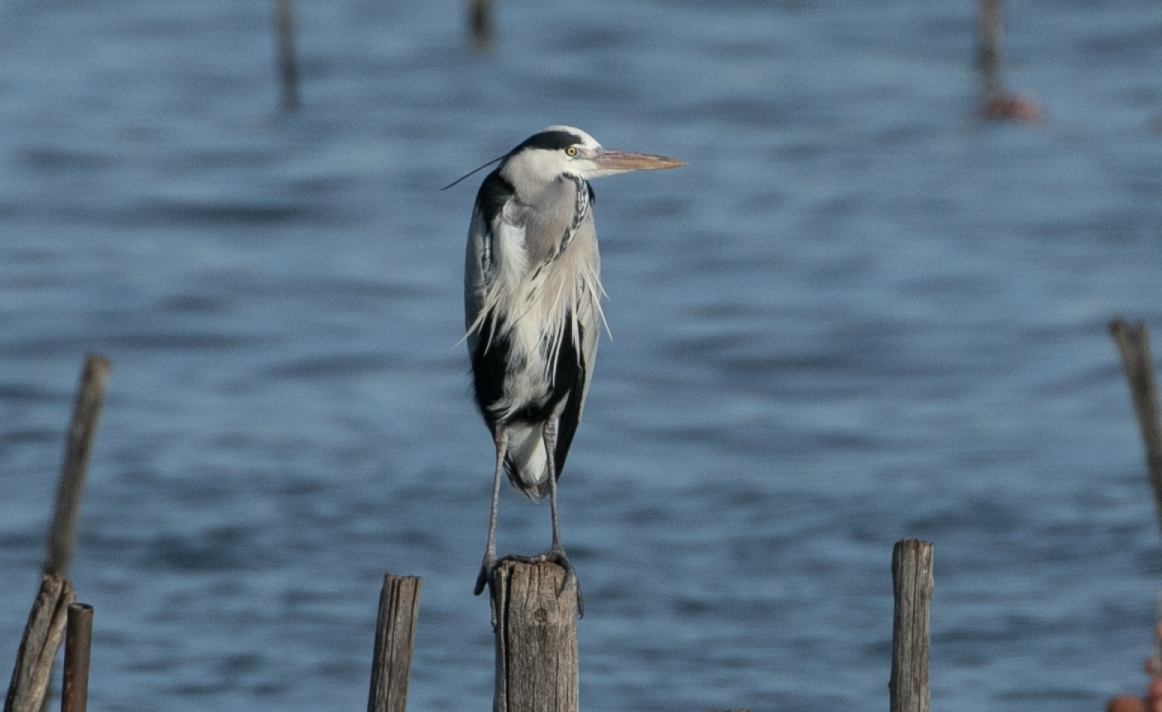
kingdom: Animalia
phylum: Chordata
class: Aves
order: Pelecaniformes
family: Ardeidae
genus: Ardea
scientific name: Ardea cinerea
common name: Grey heron
